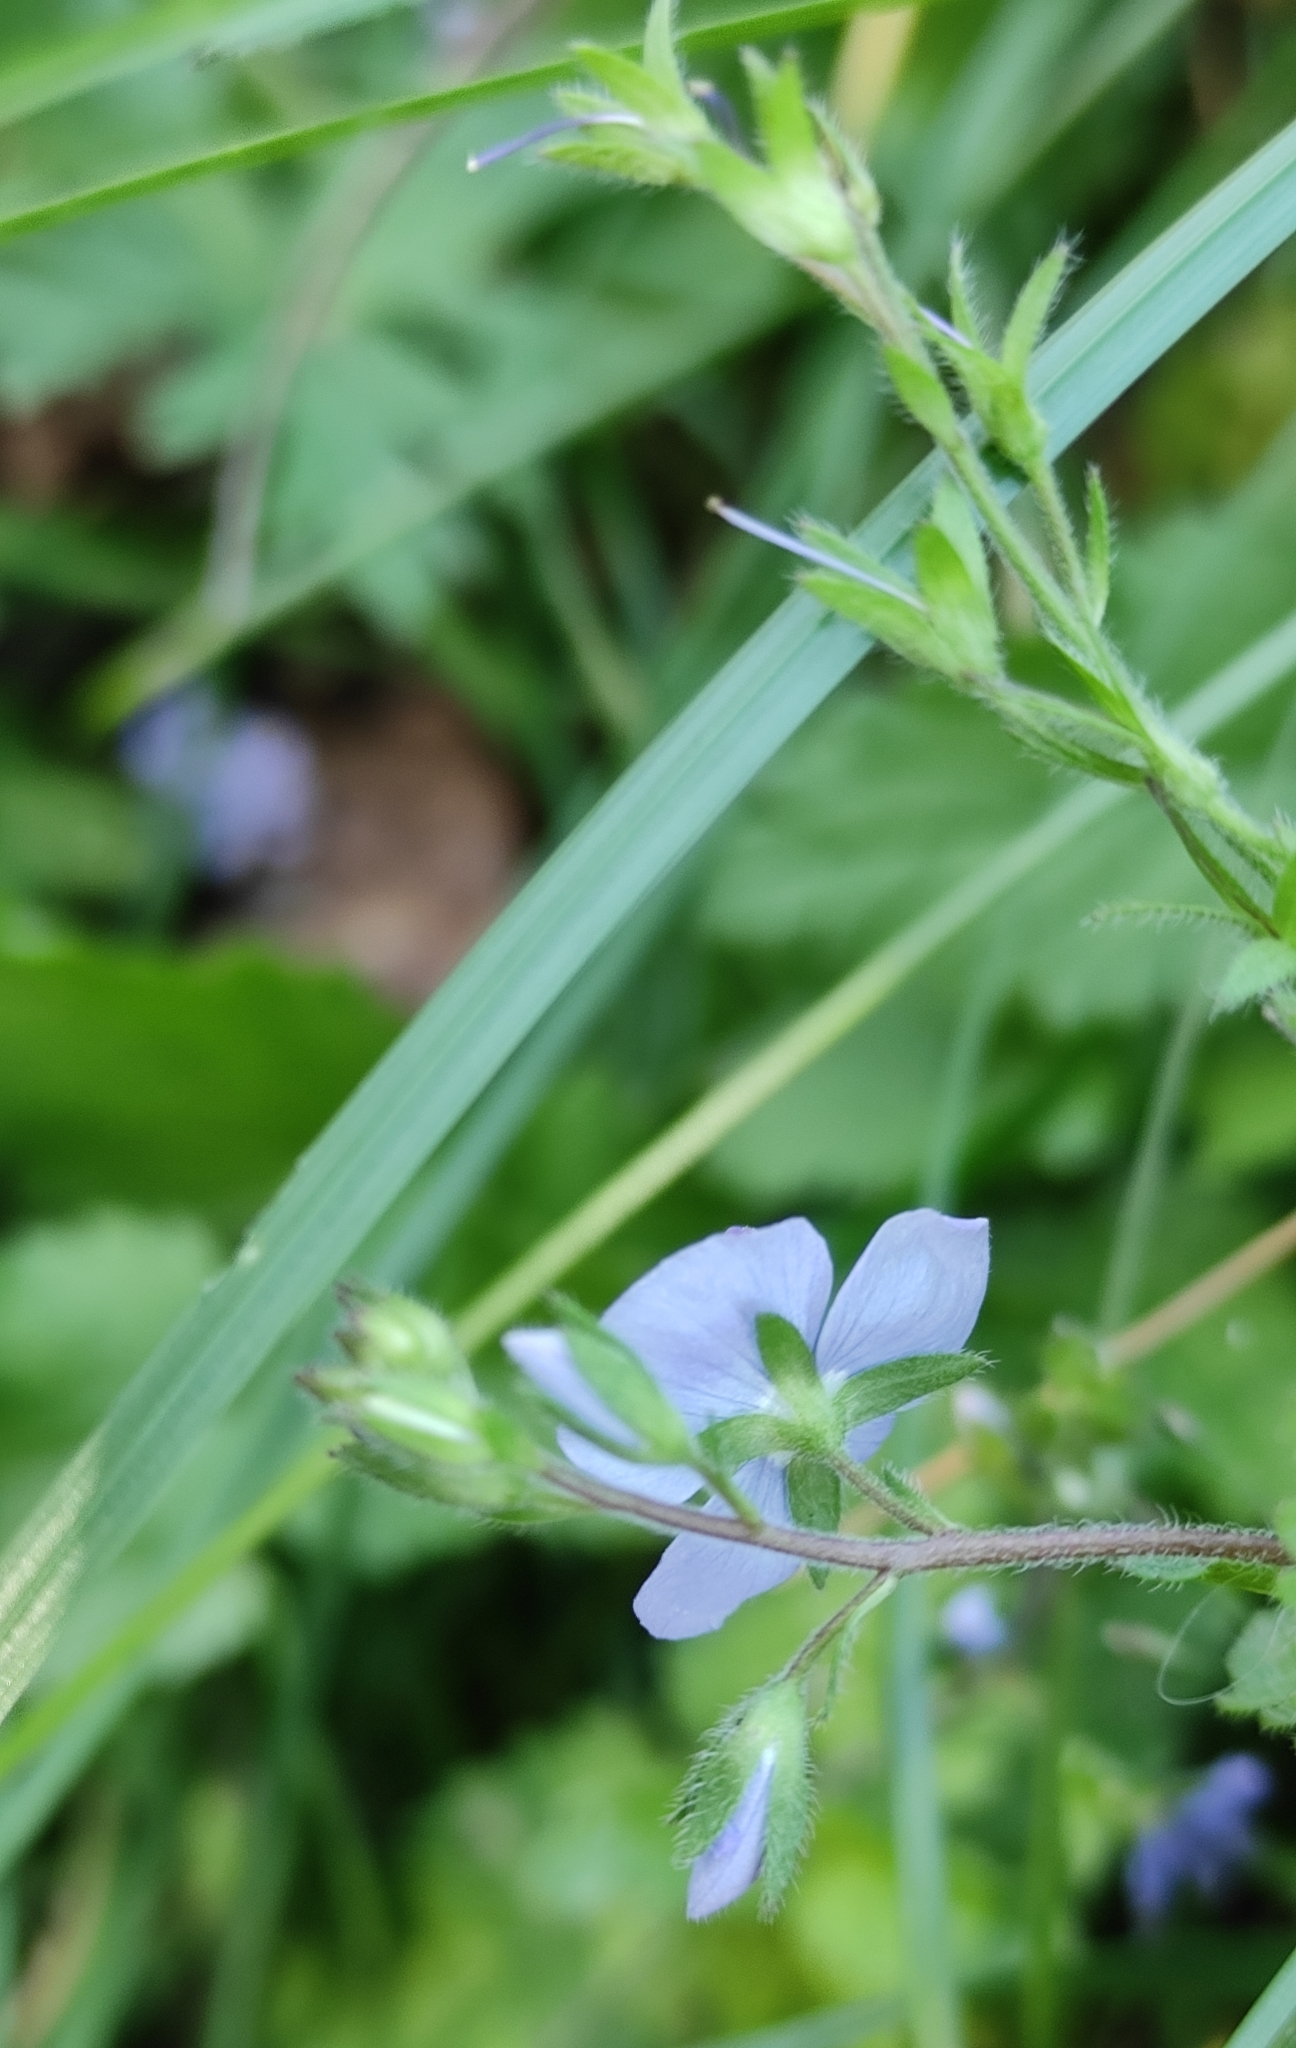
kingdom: Plantae
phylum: Tracheophyta
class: Magnoliopsida
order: Lamiales
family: Plantaginaceae
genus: Veronica
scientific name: Veronica chamaedrys
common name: Germander speedwell
